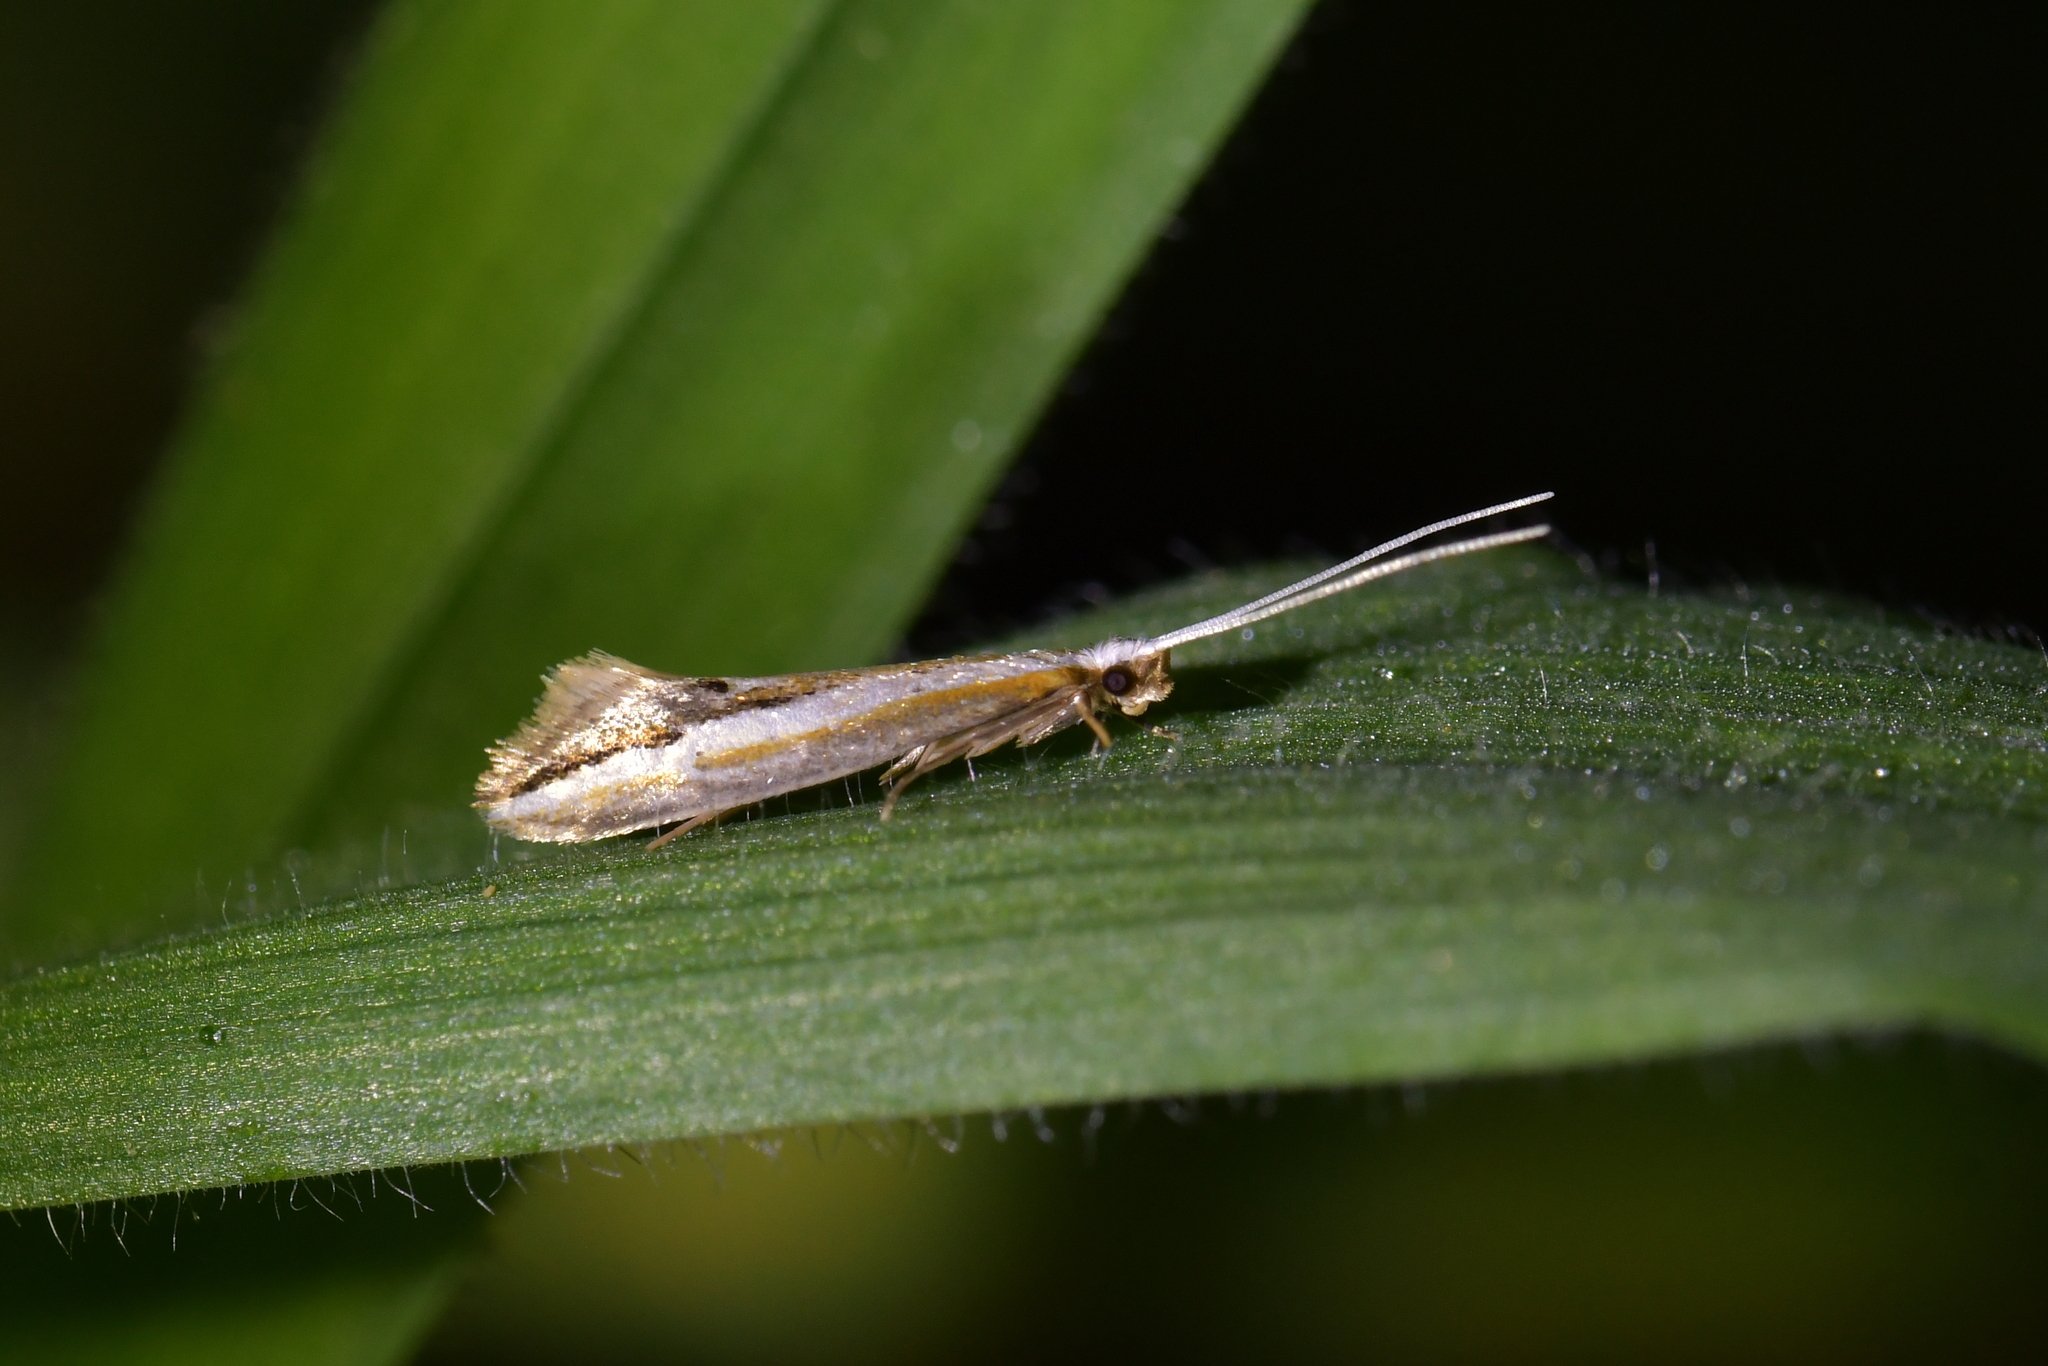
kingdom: Animalia
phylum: Arthropoda
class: Insecta
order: Lepidoptera
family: Tineidae
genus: Sagephora
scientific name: Sagephora exsanguis
